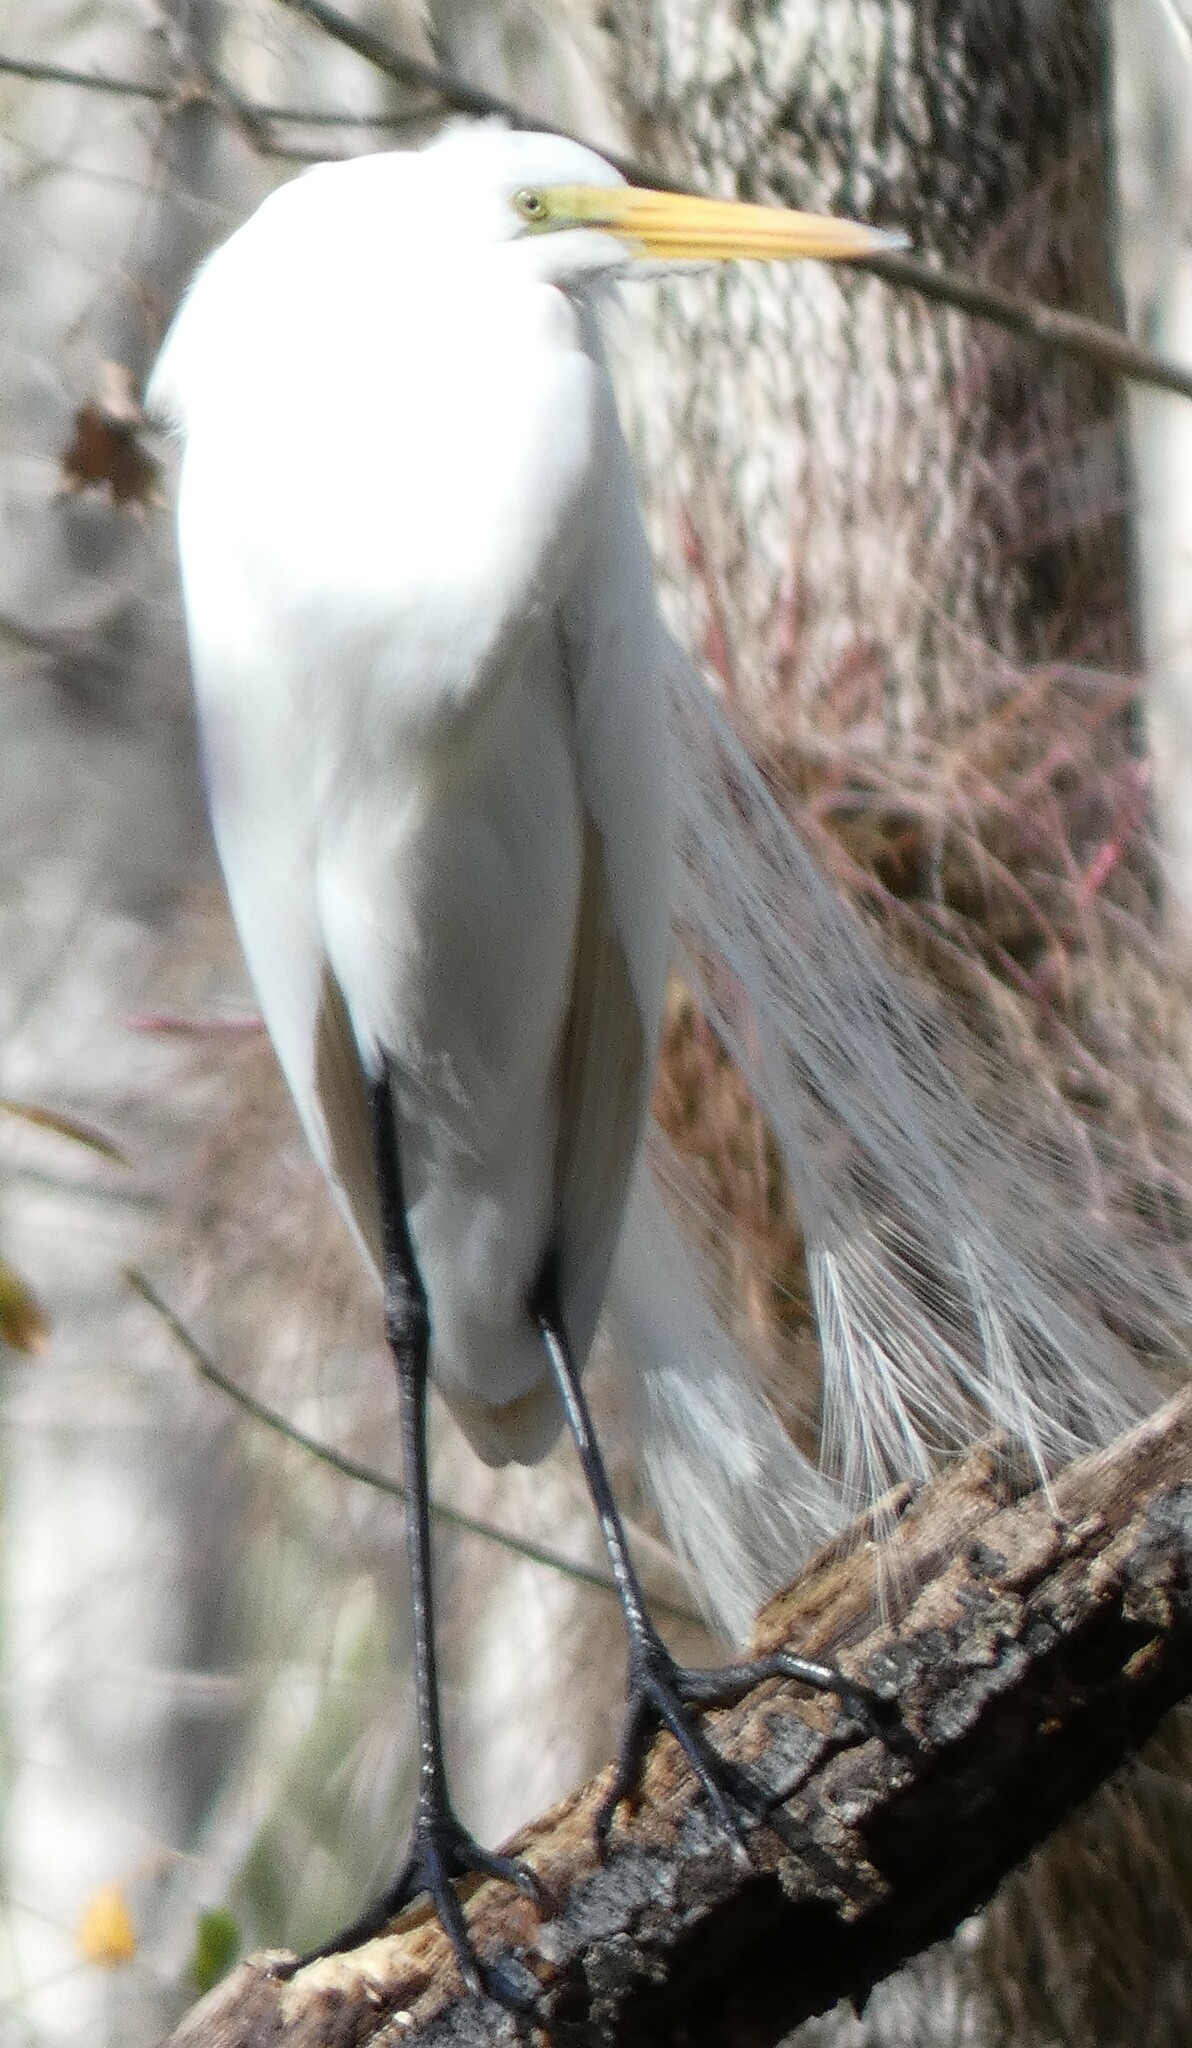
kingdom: Animalia
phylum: Chordata
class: Aves
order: Pelecaniformes
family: Ardeidae
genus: Ardea
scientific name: Ardea alba
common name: Great egret
